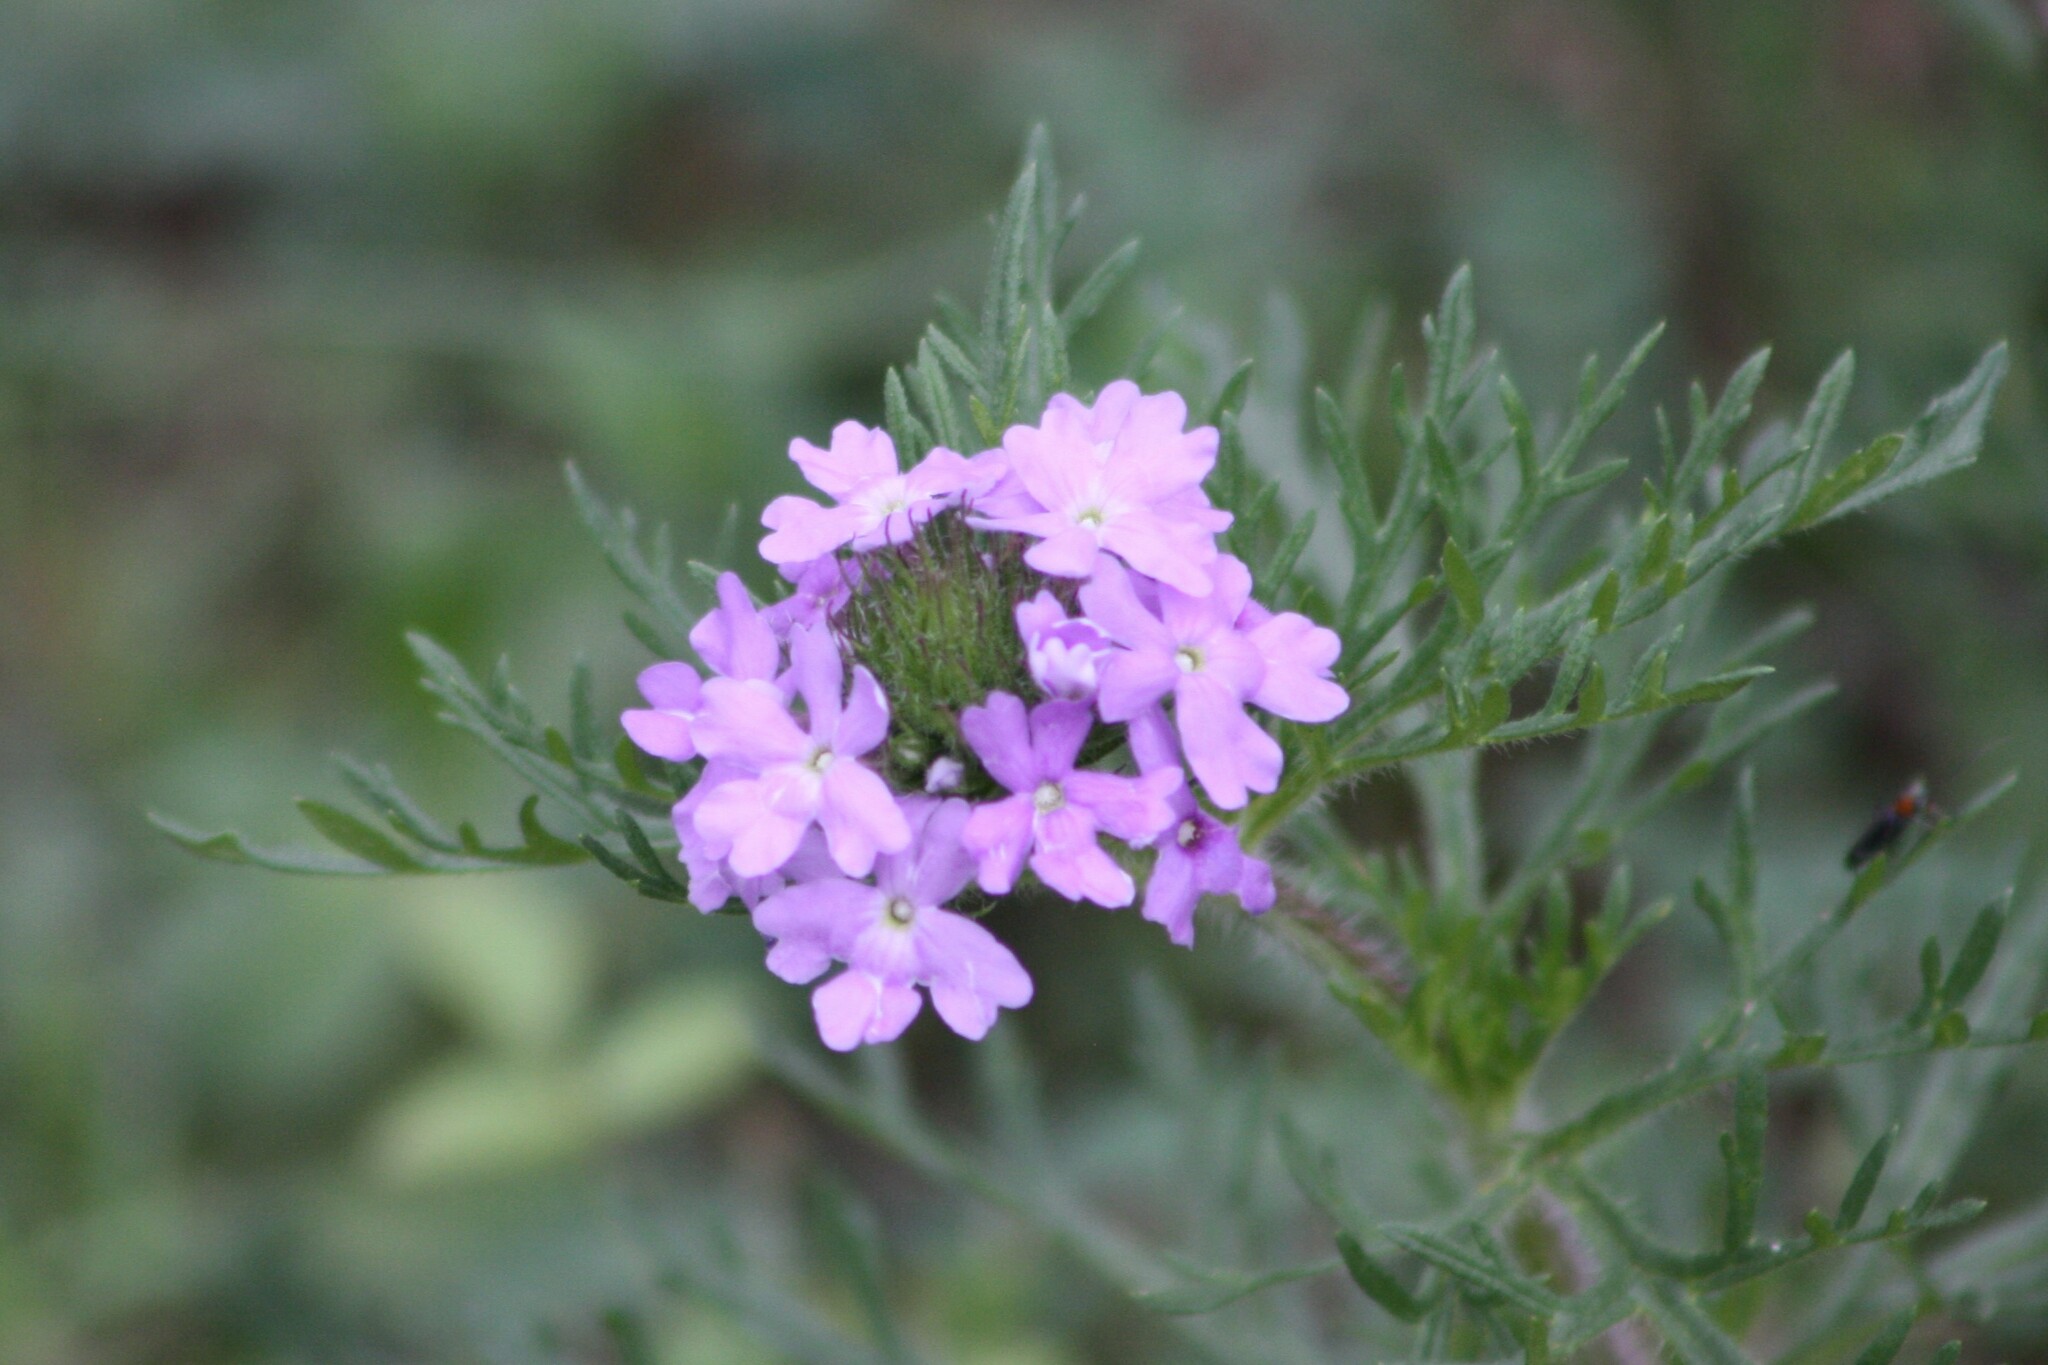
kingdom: Plantae
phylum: Tracheophyta
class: Magnoliopsida
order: Lamiales
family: Verbenaceae
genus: Verbena
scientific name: Verbena bipinnatifida
